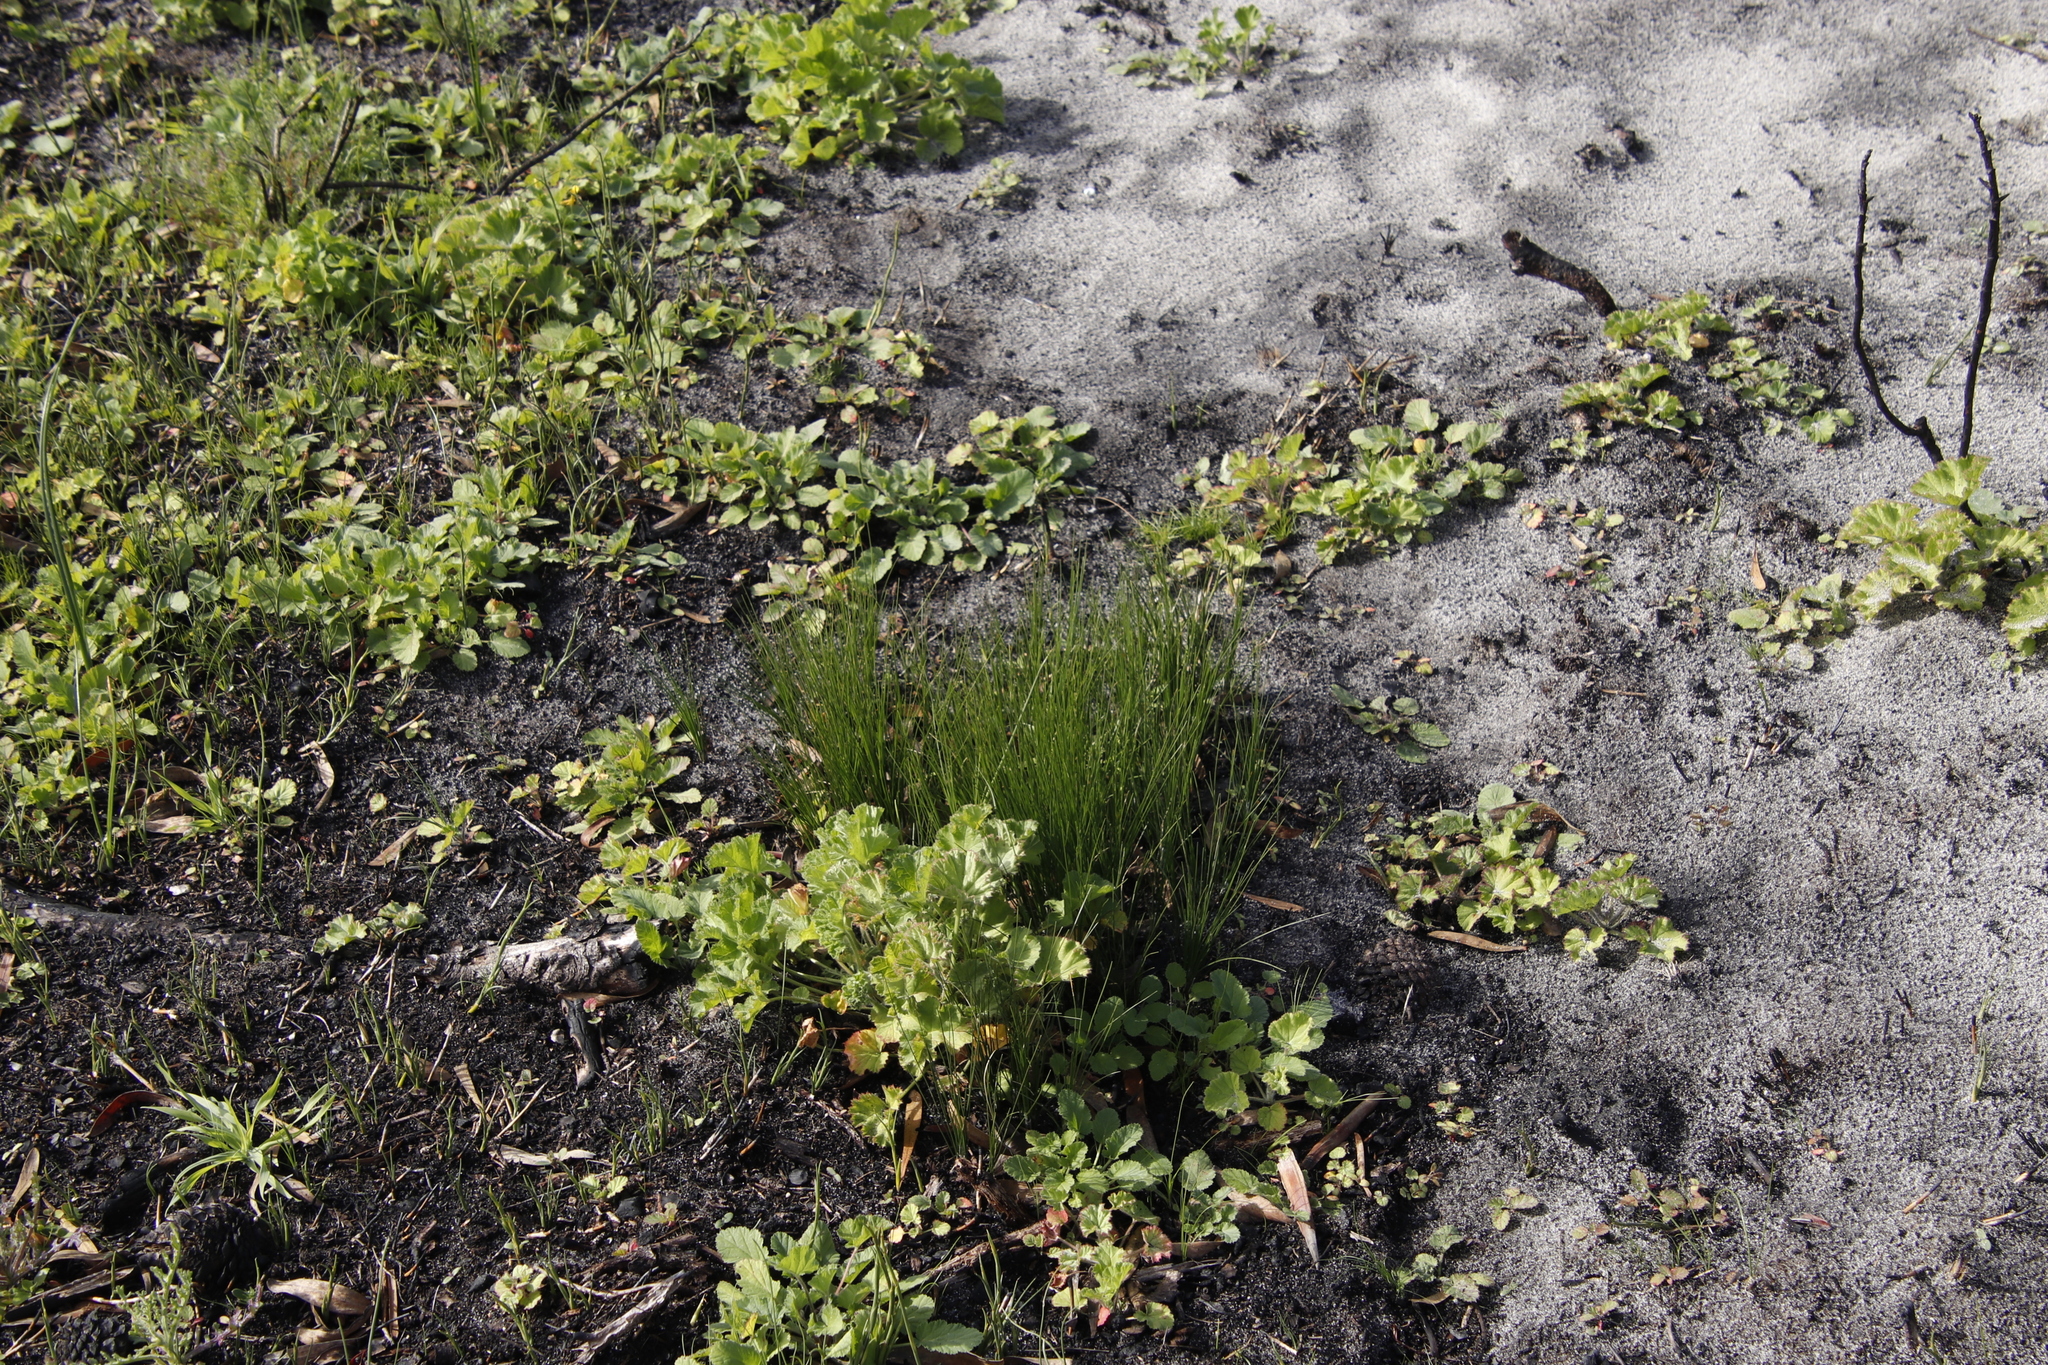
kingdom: Plantae
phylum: Tracheophyta
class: Magnoliopsida
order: Geraniales
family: Geraniaceae
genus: Pelargonium
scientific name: Pelargonium althaeoides
